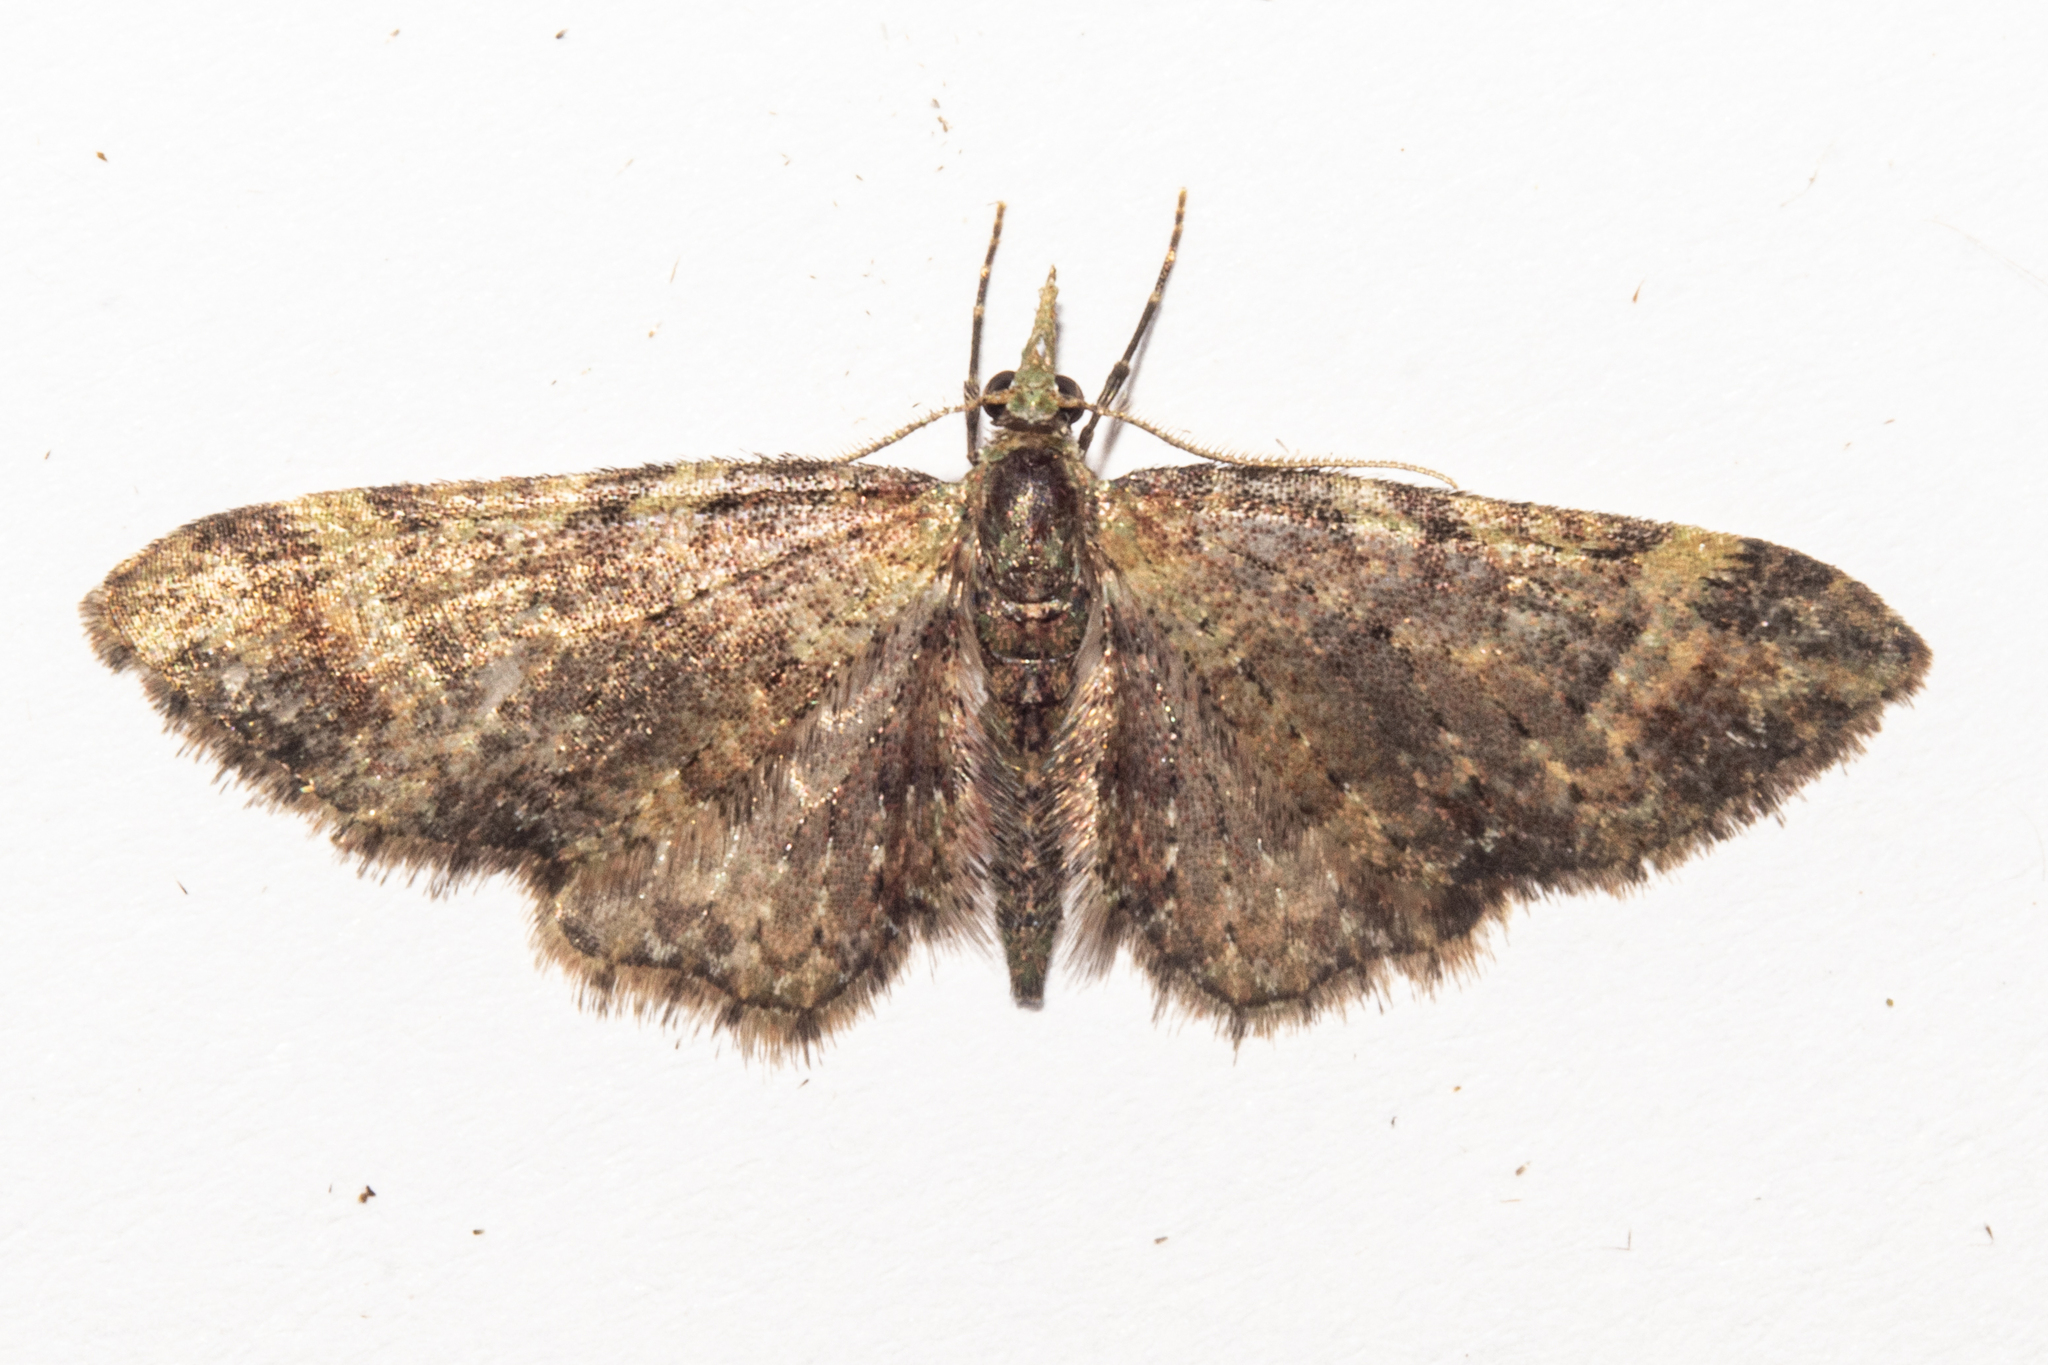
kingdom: Animalia
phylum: Arthropoda
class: Insecta
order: Lepidoptera
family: Geometridae
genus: Pasiphila
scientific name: Pasiphila plinthina
